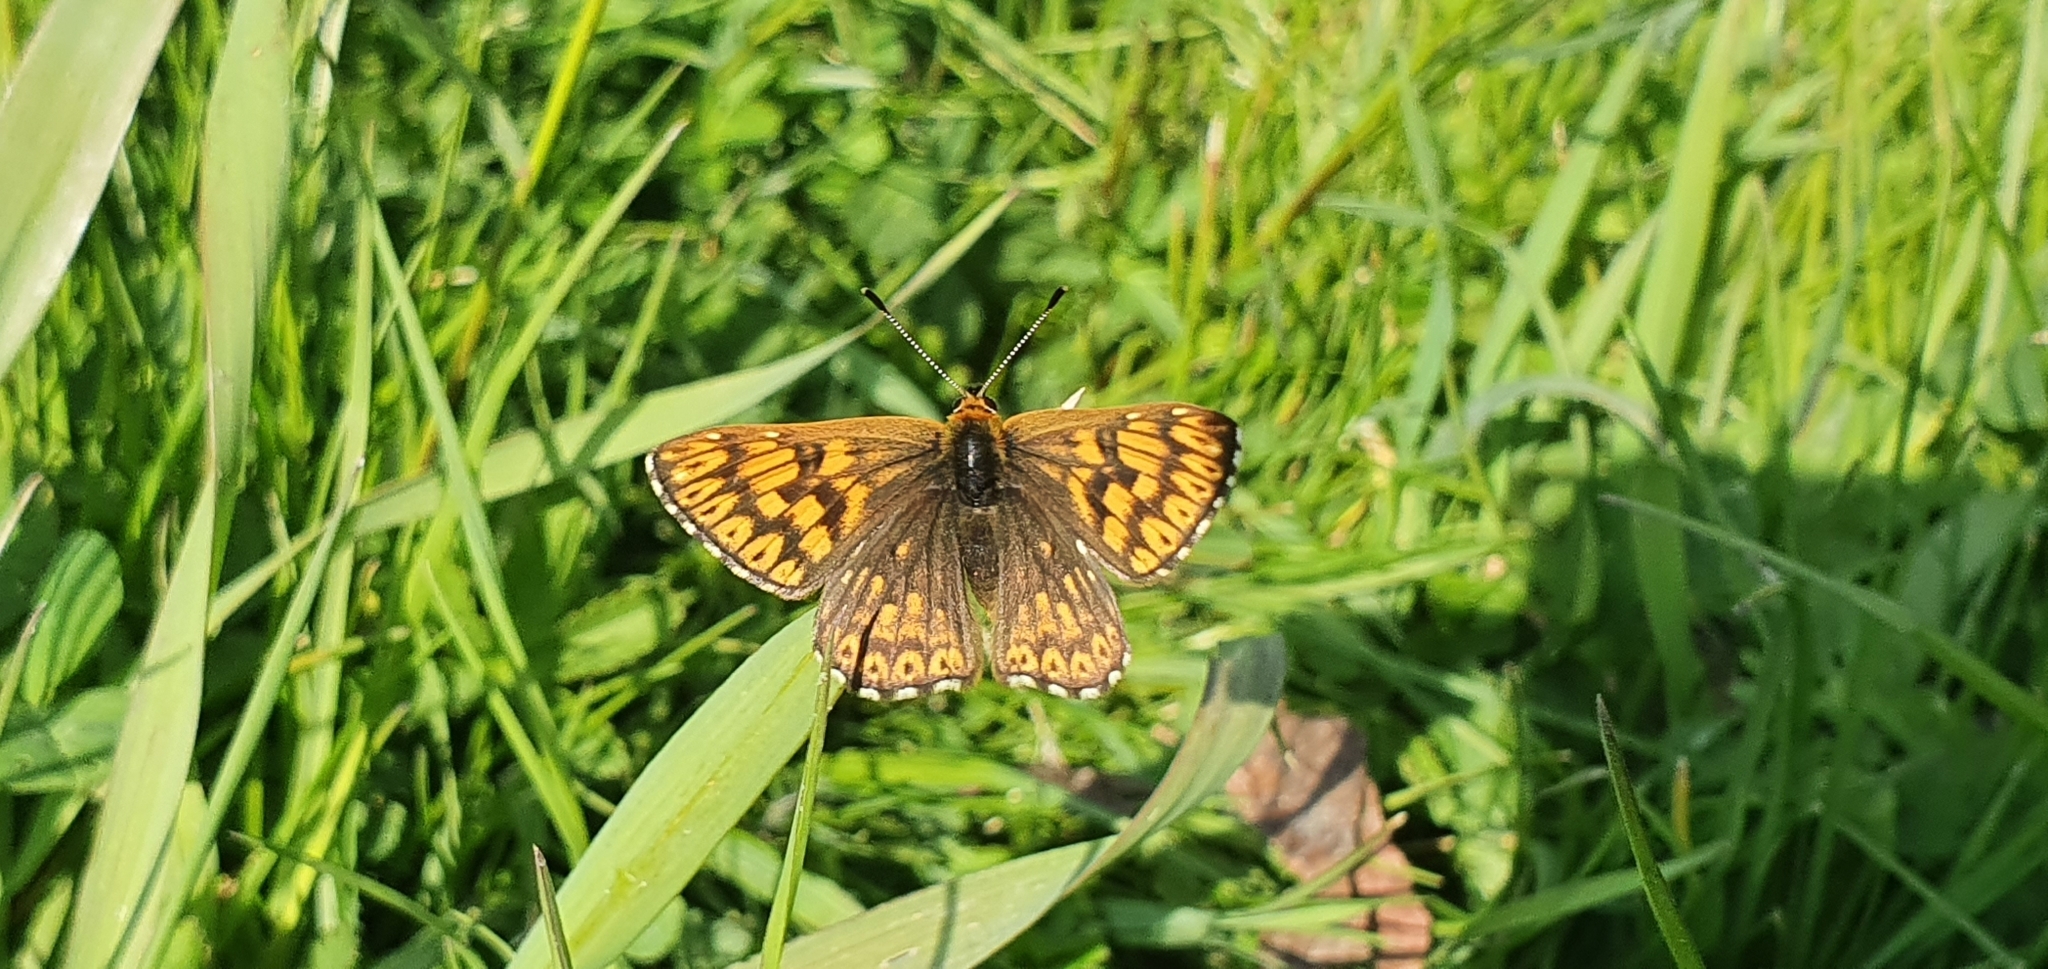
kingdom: Animalia
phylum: Arthropoda
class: Insecta
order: Lepidoptera
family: Riodinidae
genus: Hamearis
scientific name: Hamearis lucina
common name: Duke of burgundy fritillary
